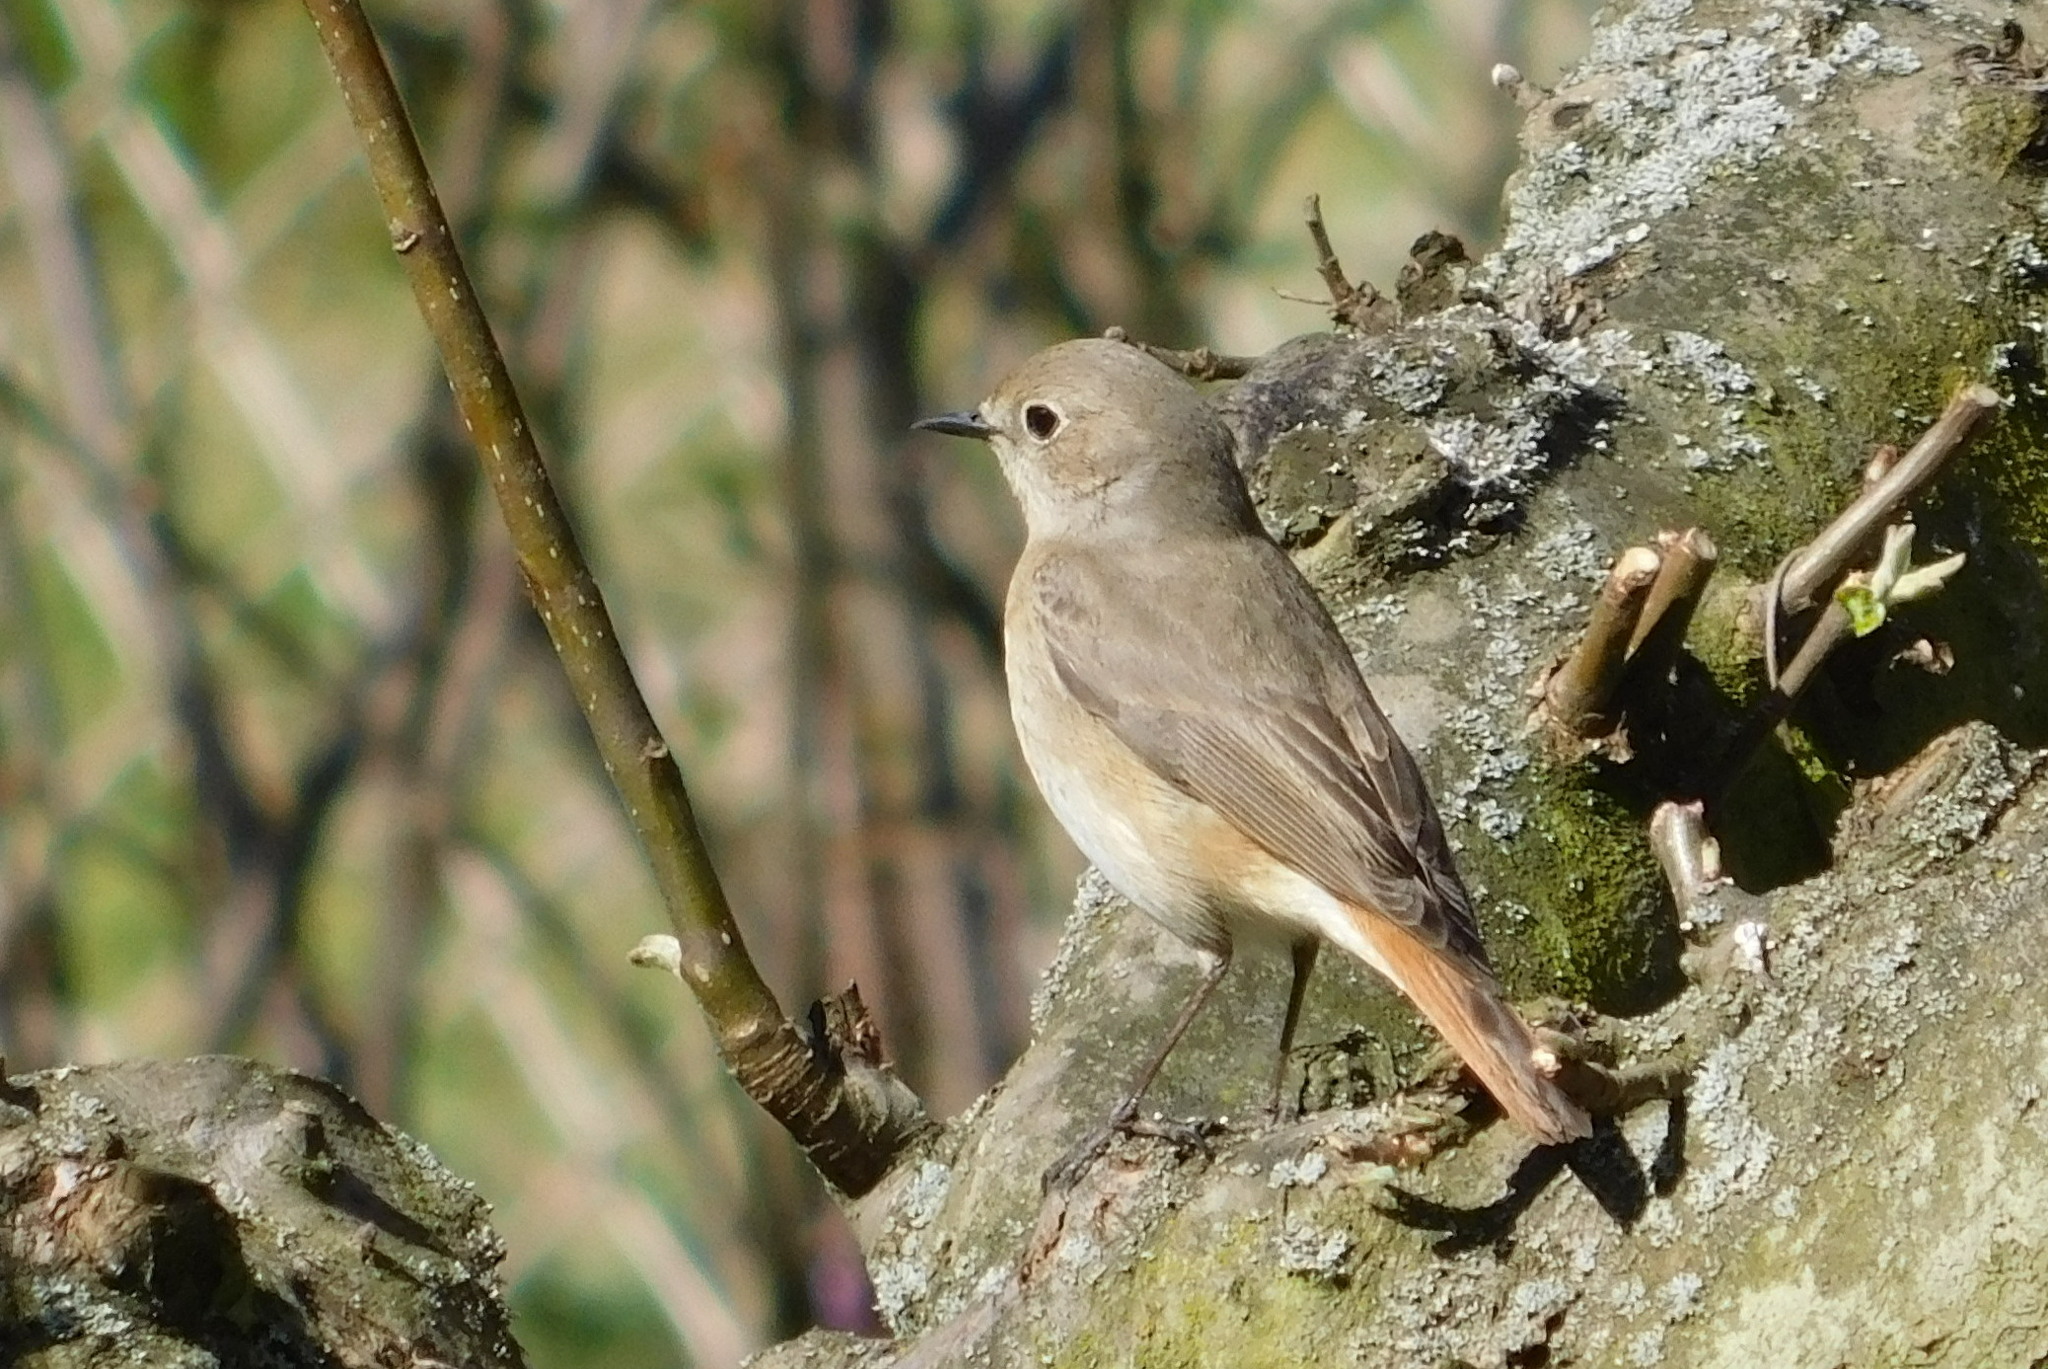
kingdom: Animalia
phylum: Chordata
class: Aves
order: Passeriformes
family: Muscicapidae
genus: Phoenicurus
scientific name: Phoenicurus phoenicurus
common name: Common redstart
